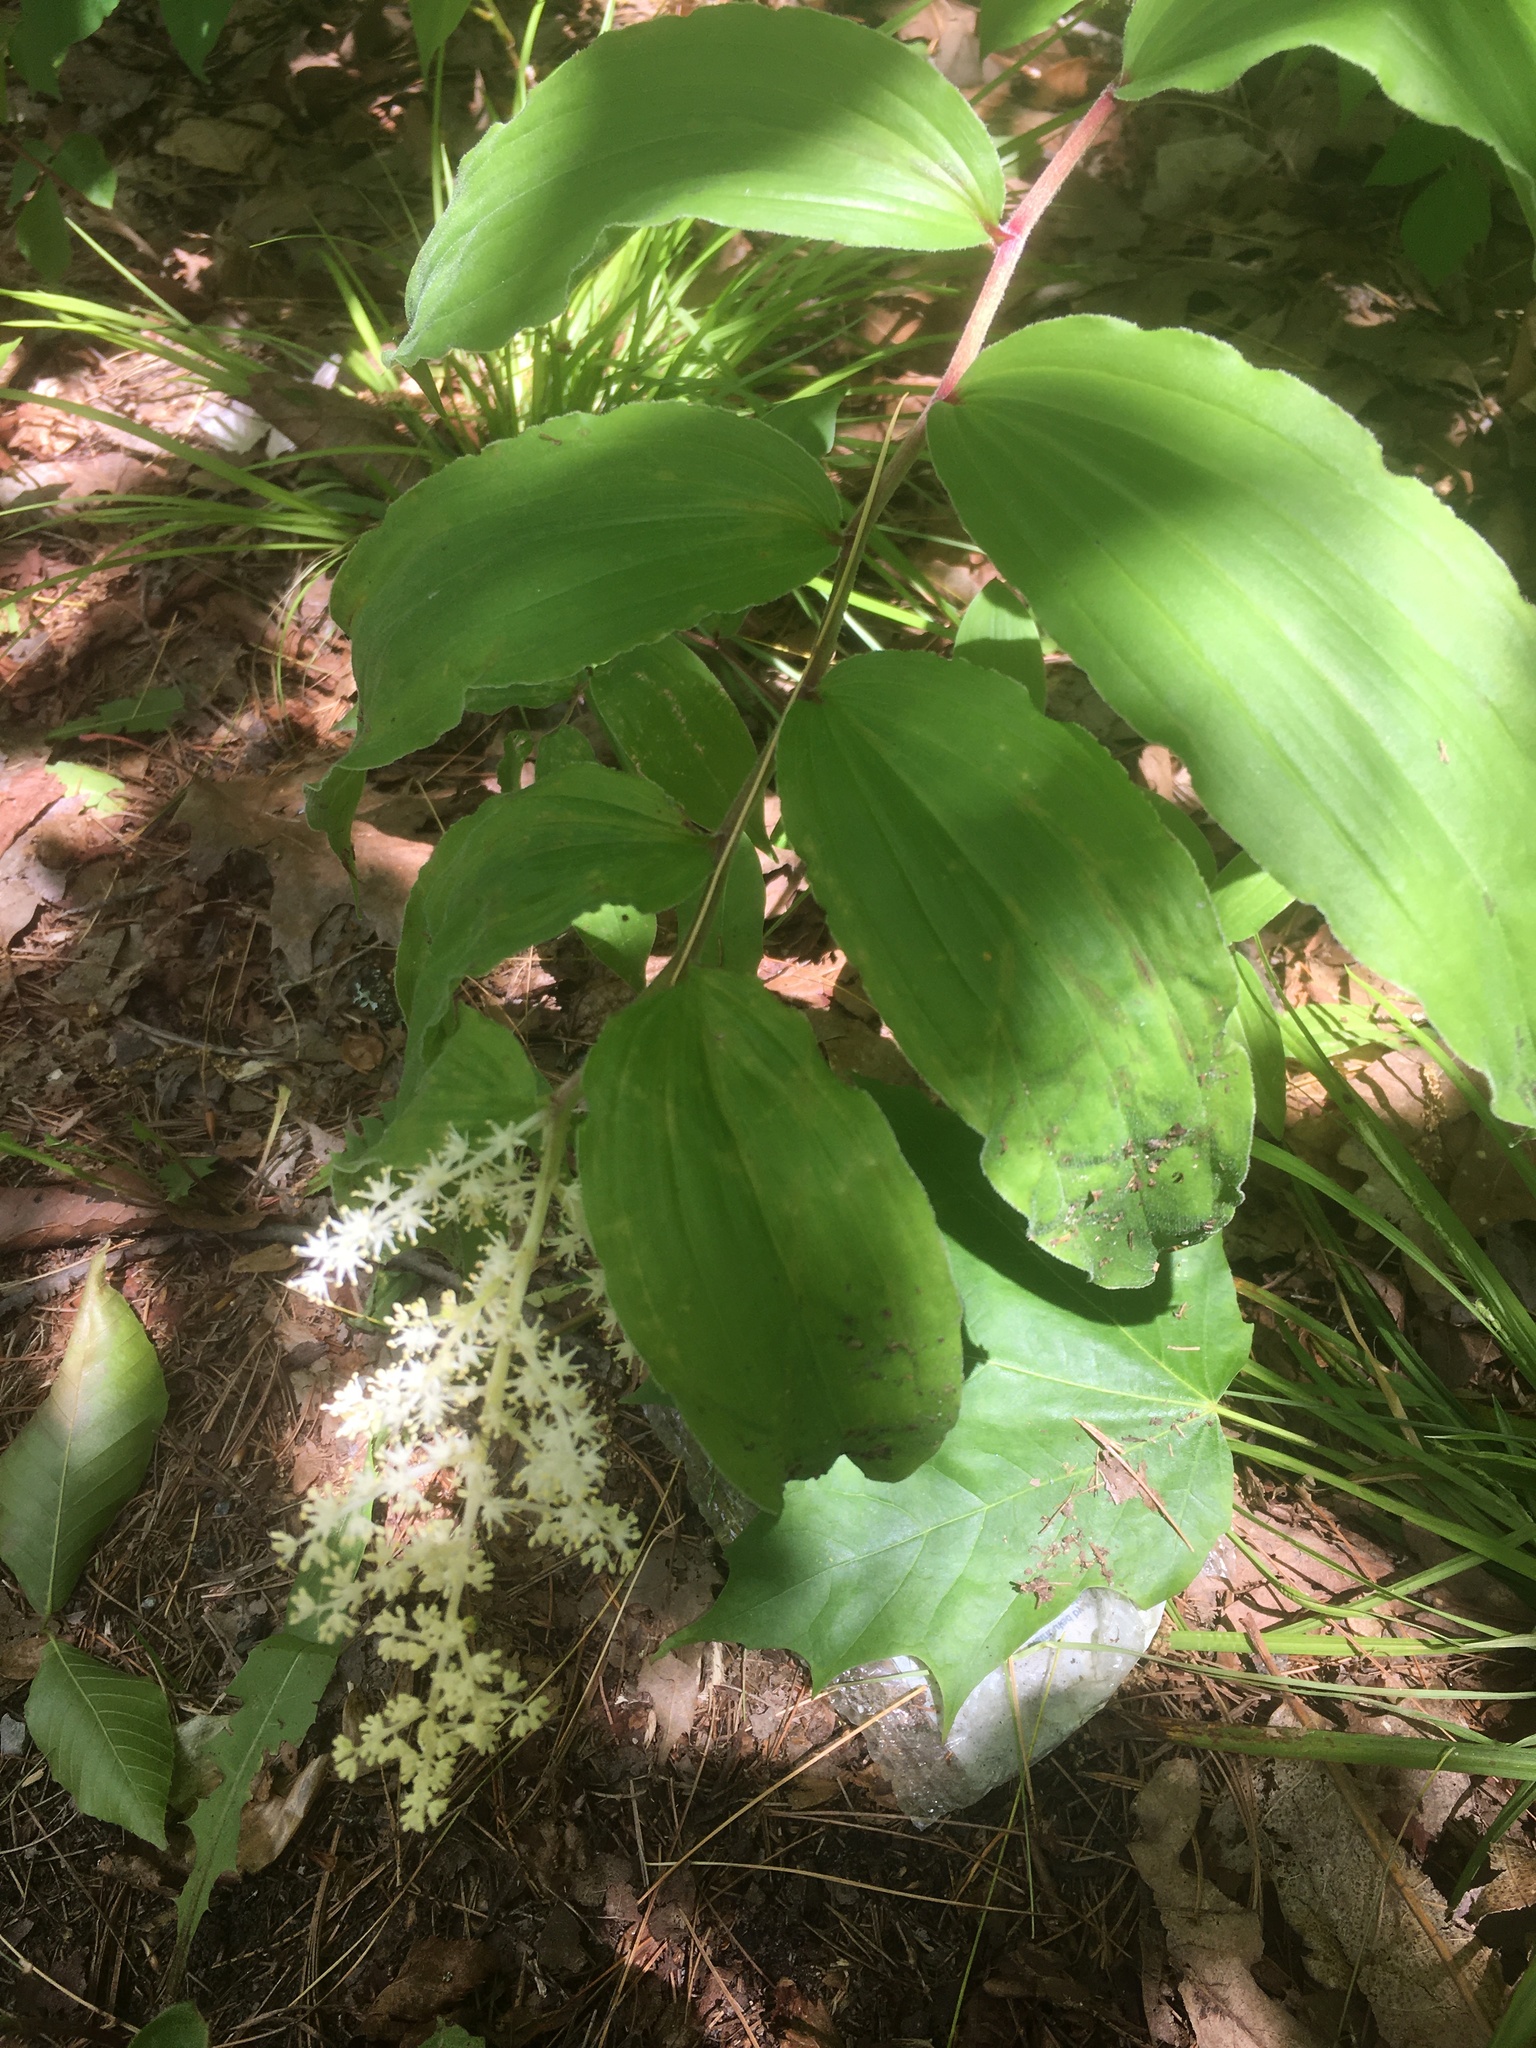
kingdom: Plantae
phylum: Tracheophyta
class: Liliopsida
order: Asparagales
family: Asparagaceae
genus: Maianthemum
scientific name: Maianthemum racemosum
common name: False spikenard
